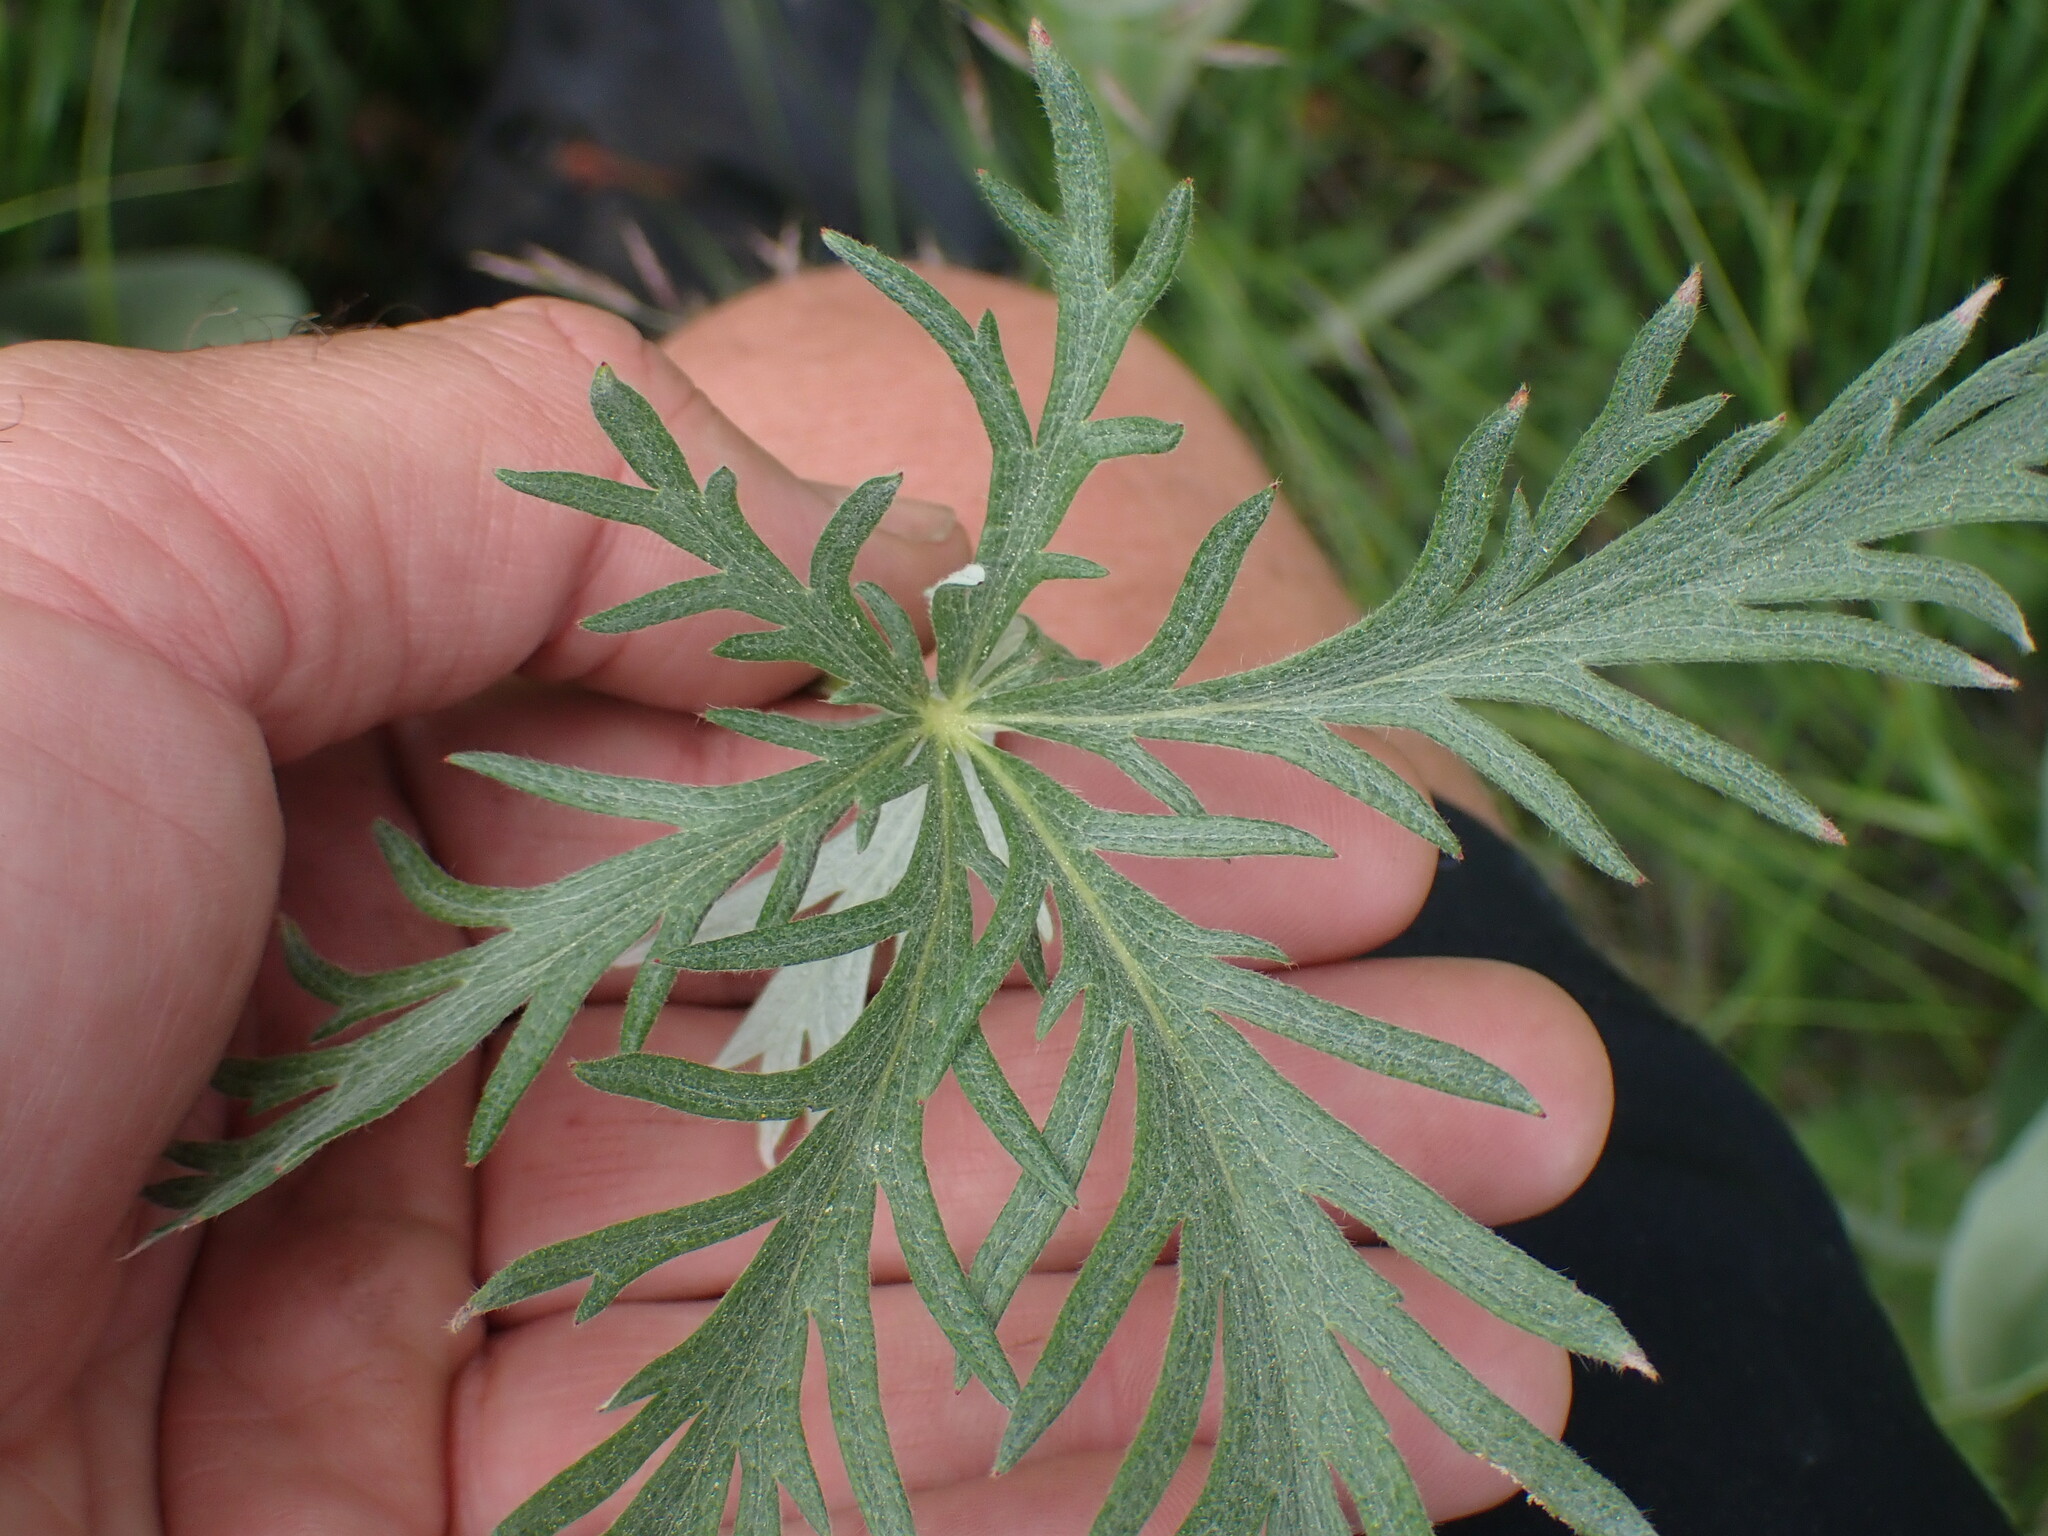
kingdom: Plantae
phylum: Tracheophyta
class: Magnoliopsida
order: Rosales
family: Rosaceae
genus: Potentilla
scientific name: Potentilla gracilis
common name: Graceful cinquefoil
